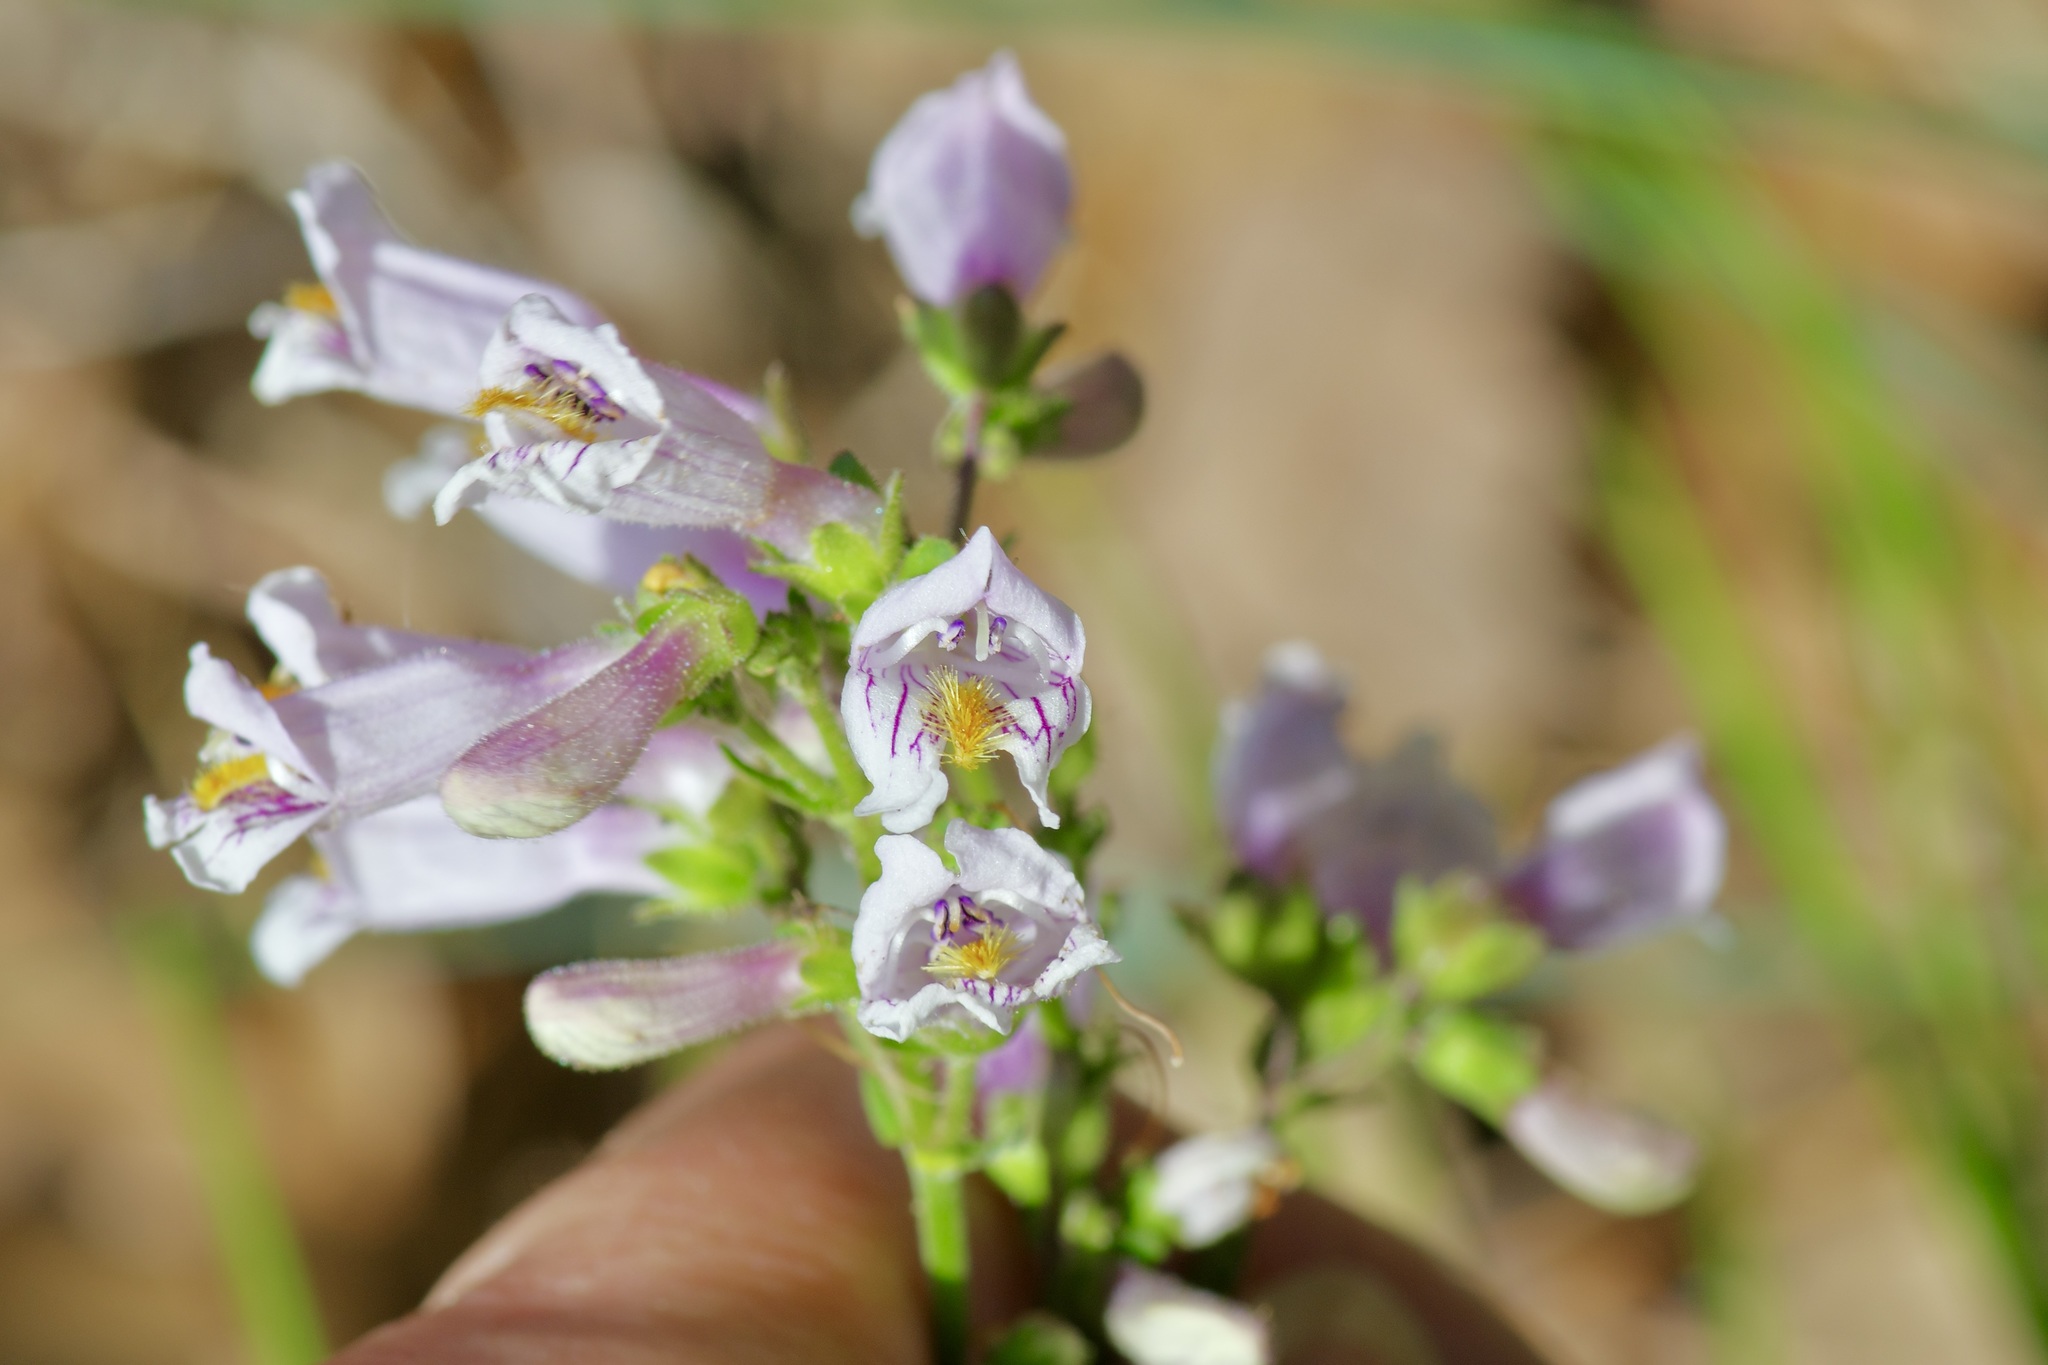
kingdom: Plantae
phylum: Tracheophyta
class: Magnoliopsida
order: Lamiales
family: Plantaginaceae
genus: Penstemon
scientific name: Penstemon laxiflorus
